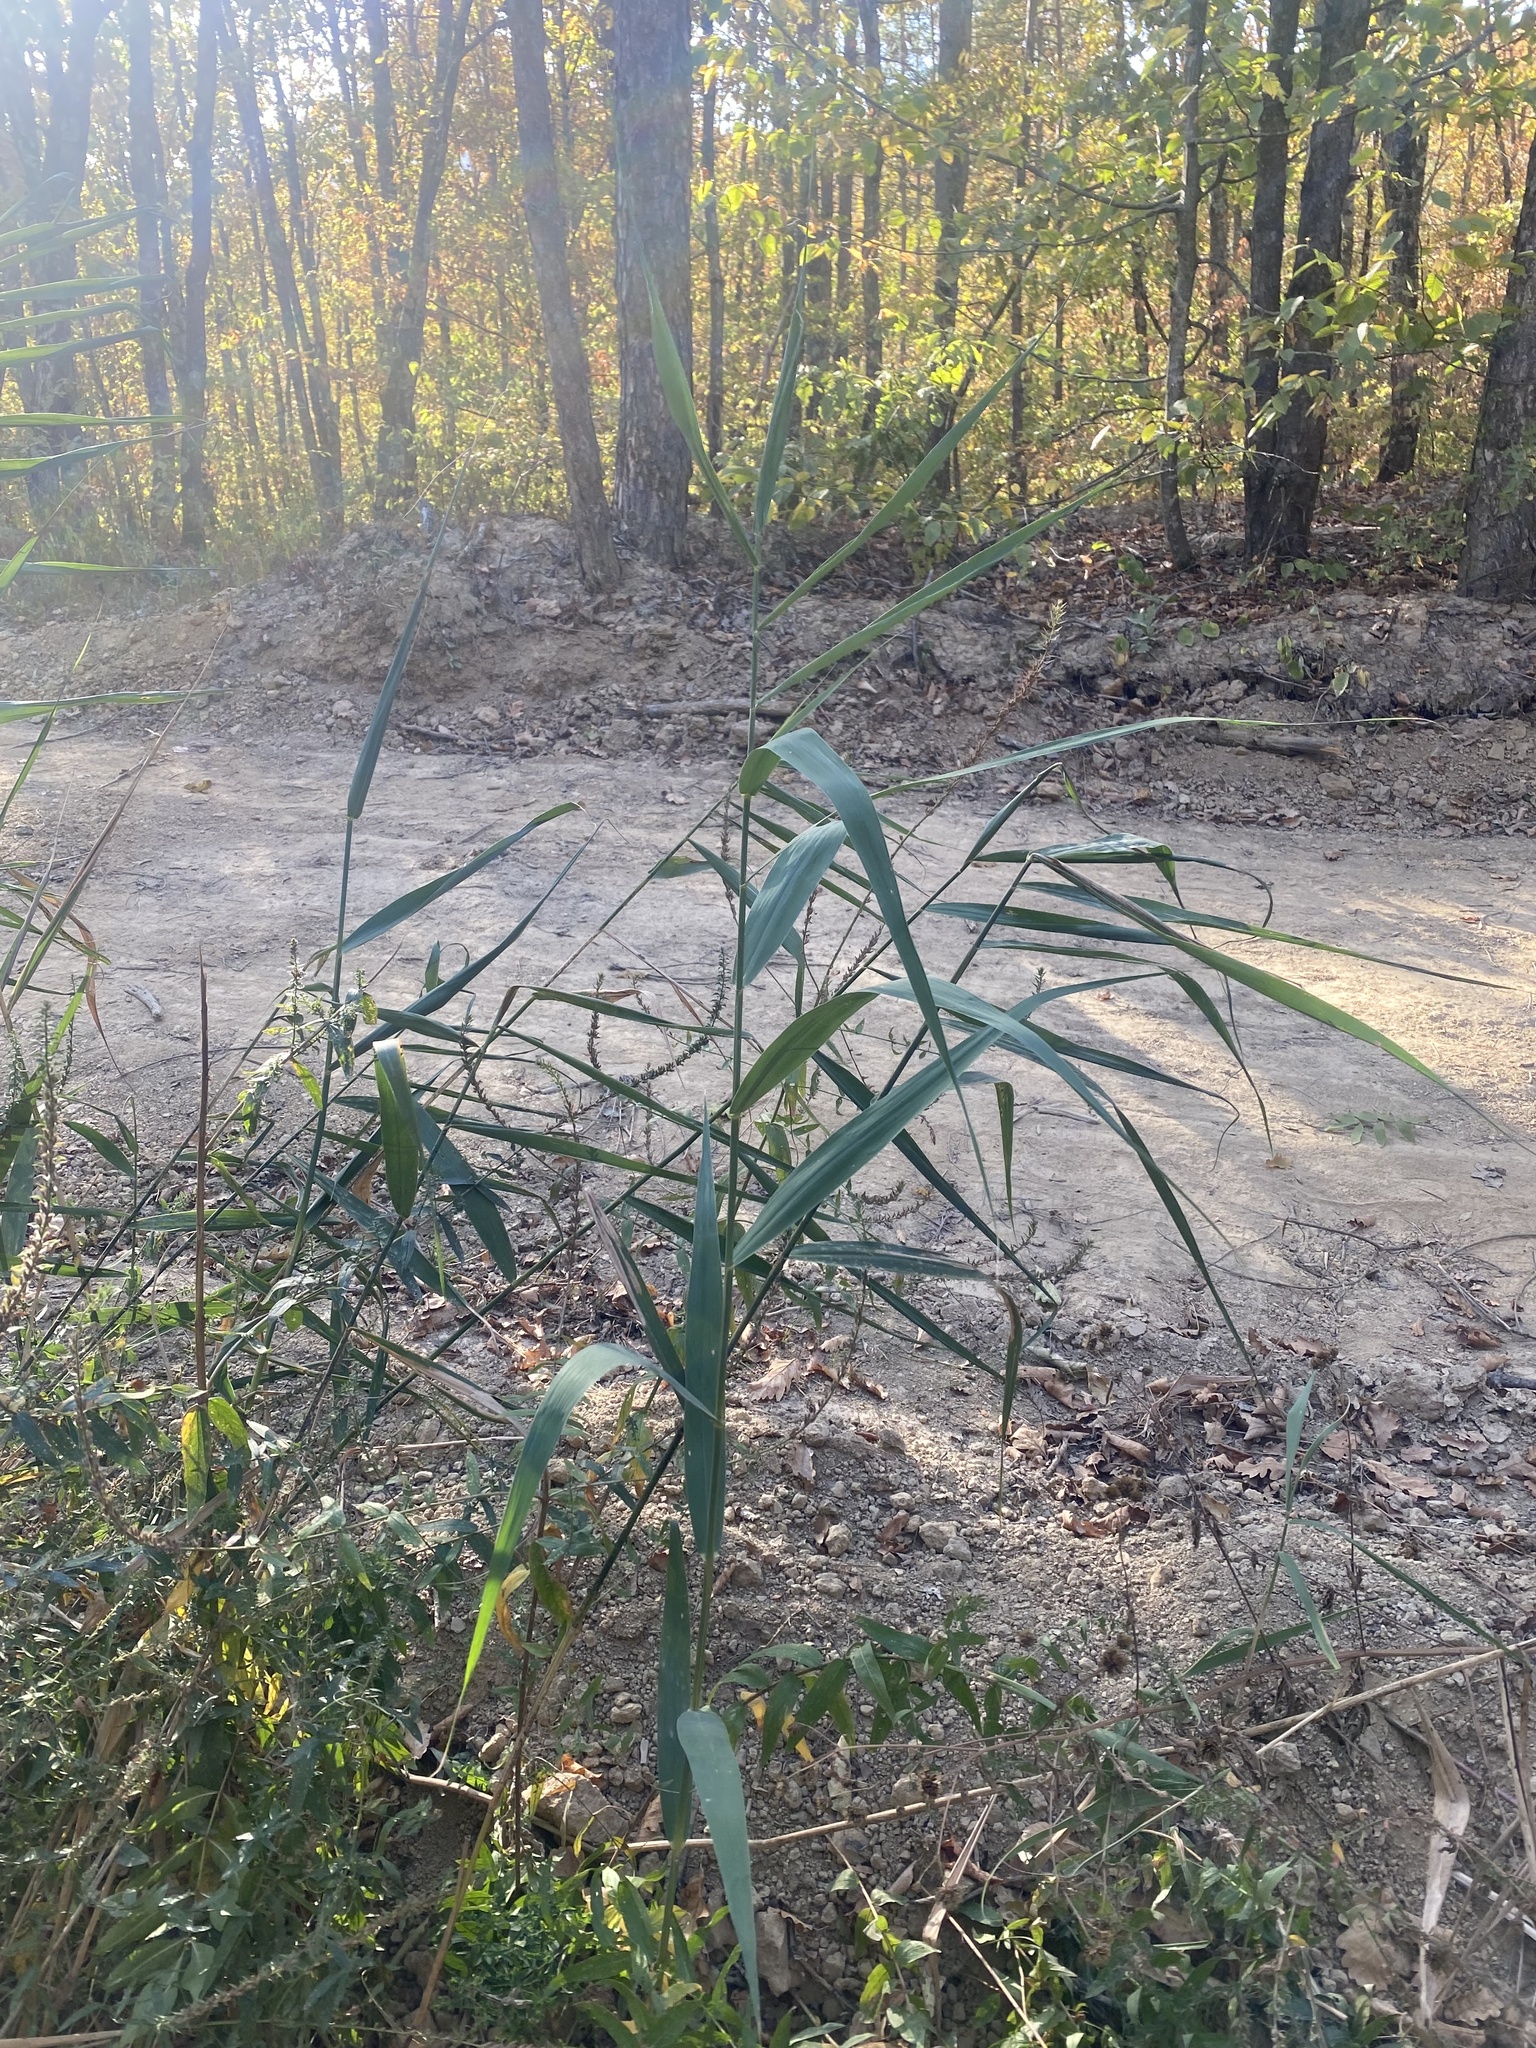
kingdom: Plantae
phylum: Tracheophyta
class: Liliopsida
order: Poales
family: Poaceae
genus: Phragmites
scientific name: Phragmites australis
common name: Common reed
